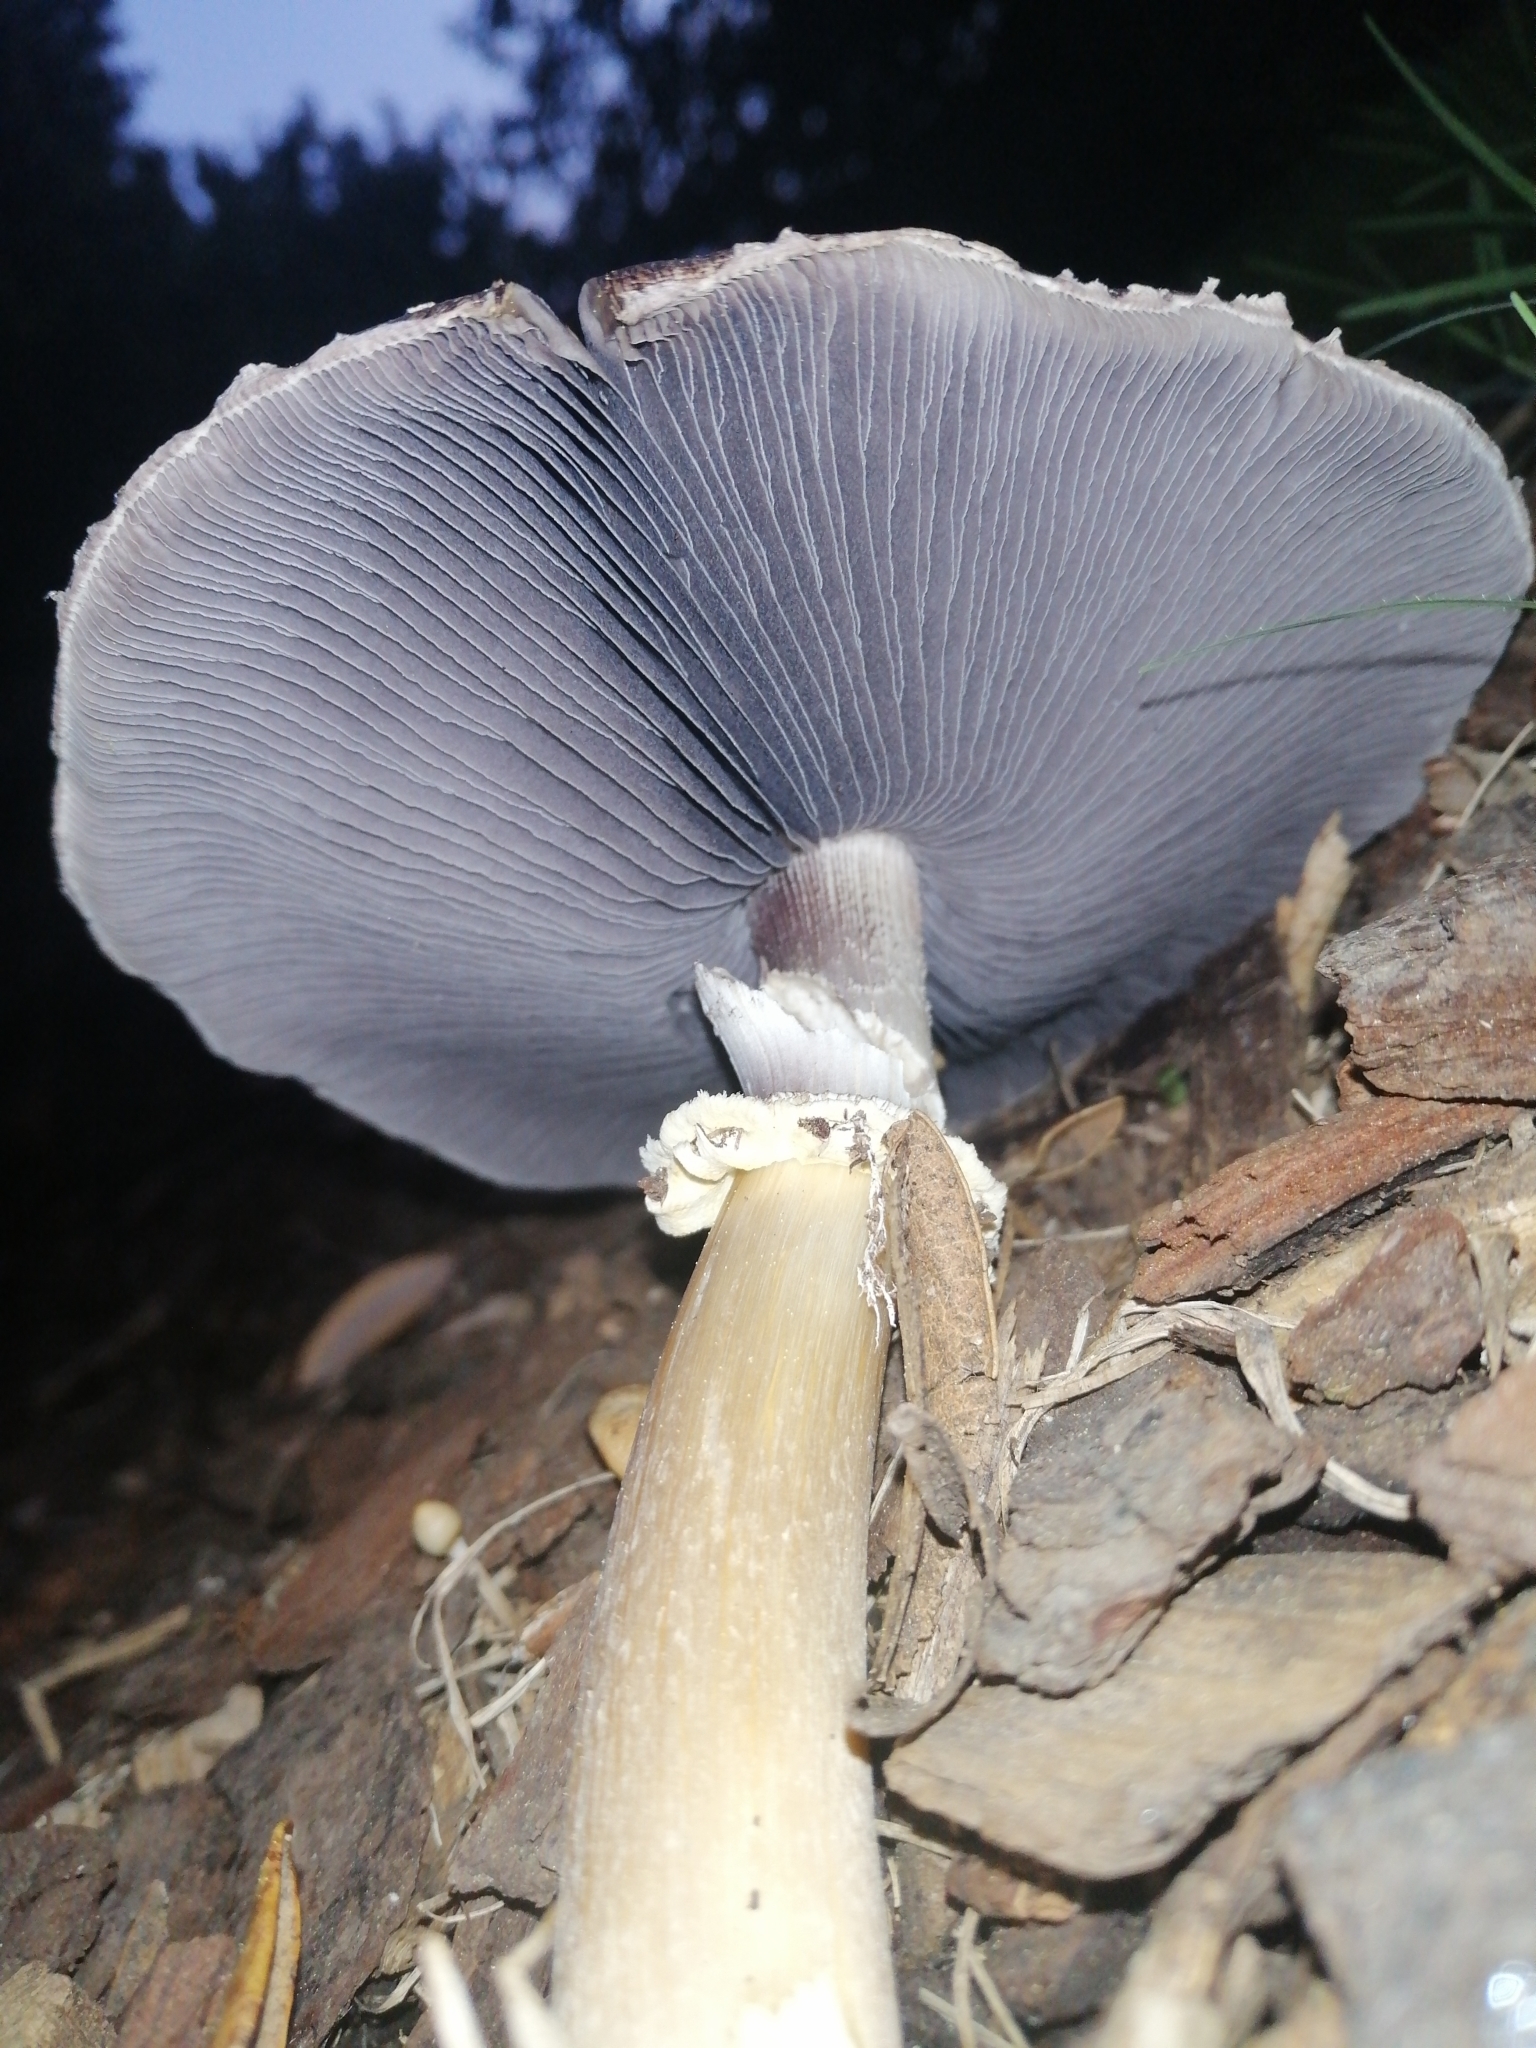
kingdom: Fungi
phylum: Basidiomycota
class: Agaricomycetes
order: Agaricales
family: Strophariaceae
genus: Stropharia
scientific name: Stropharia rugosoannulata
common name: Wine roundhead
